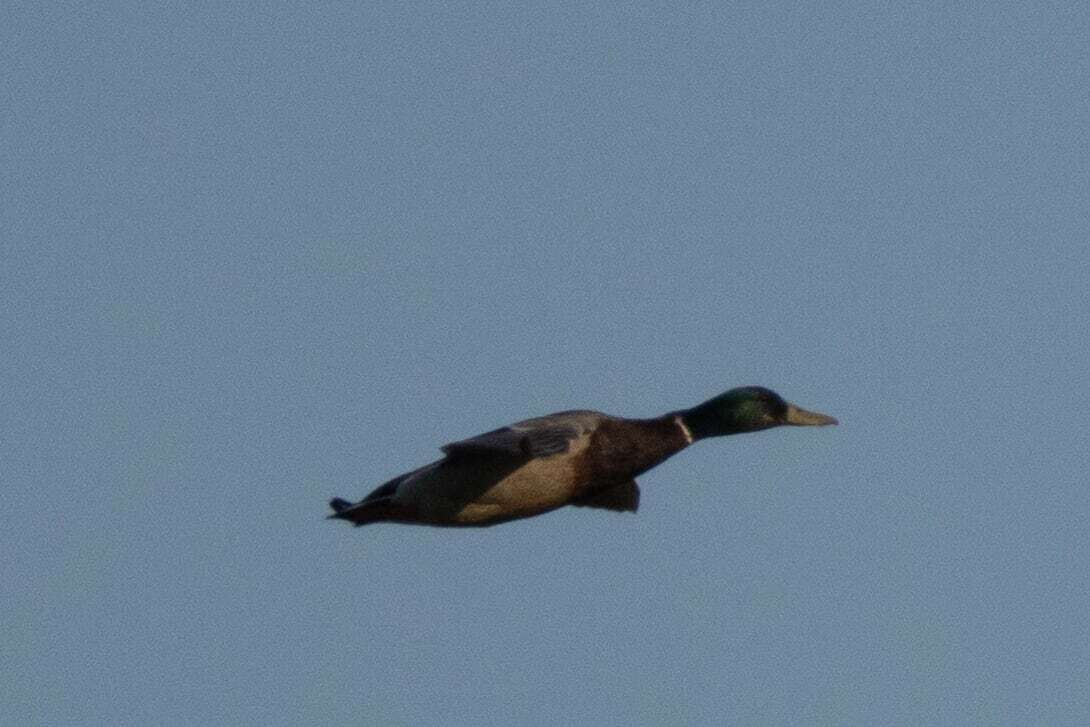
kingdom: Animalia
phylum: Chordata
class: Aves
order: Anseriformes
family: Anatidae
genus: Anas
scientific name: Anas platyrhynchos
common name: Mallard
